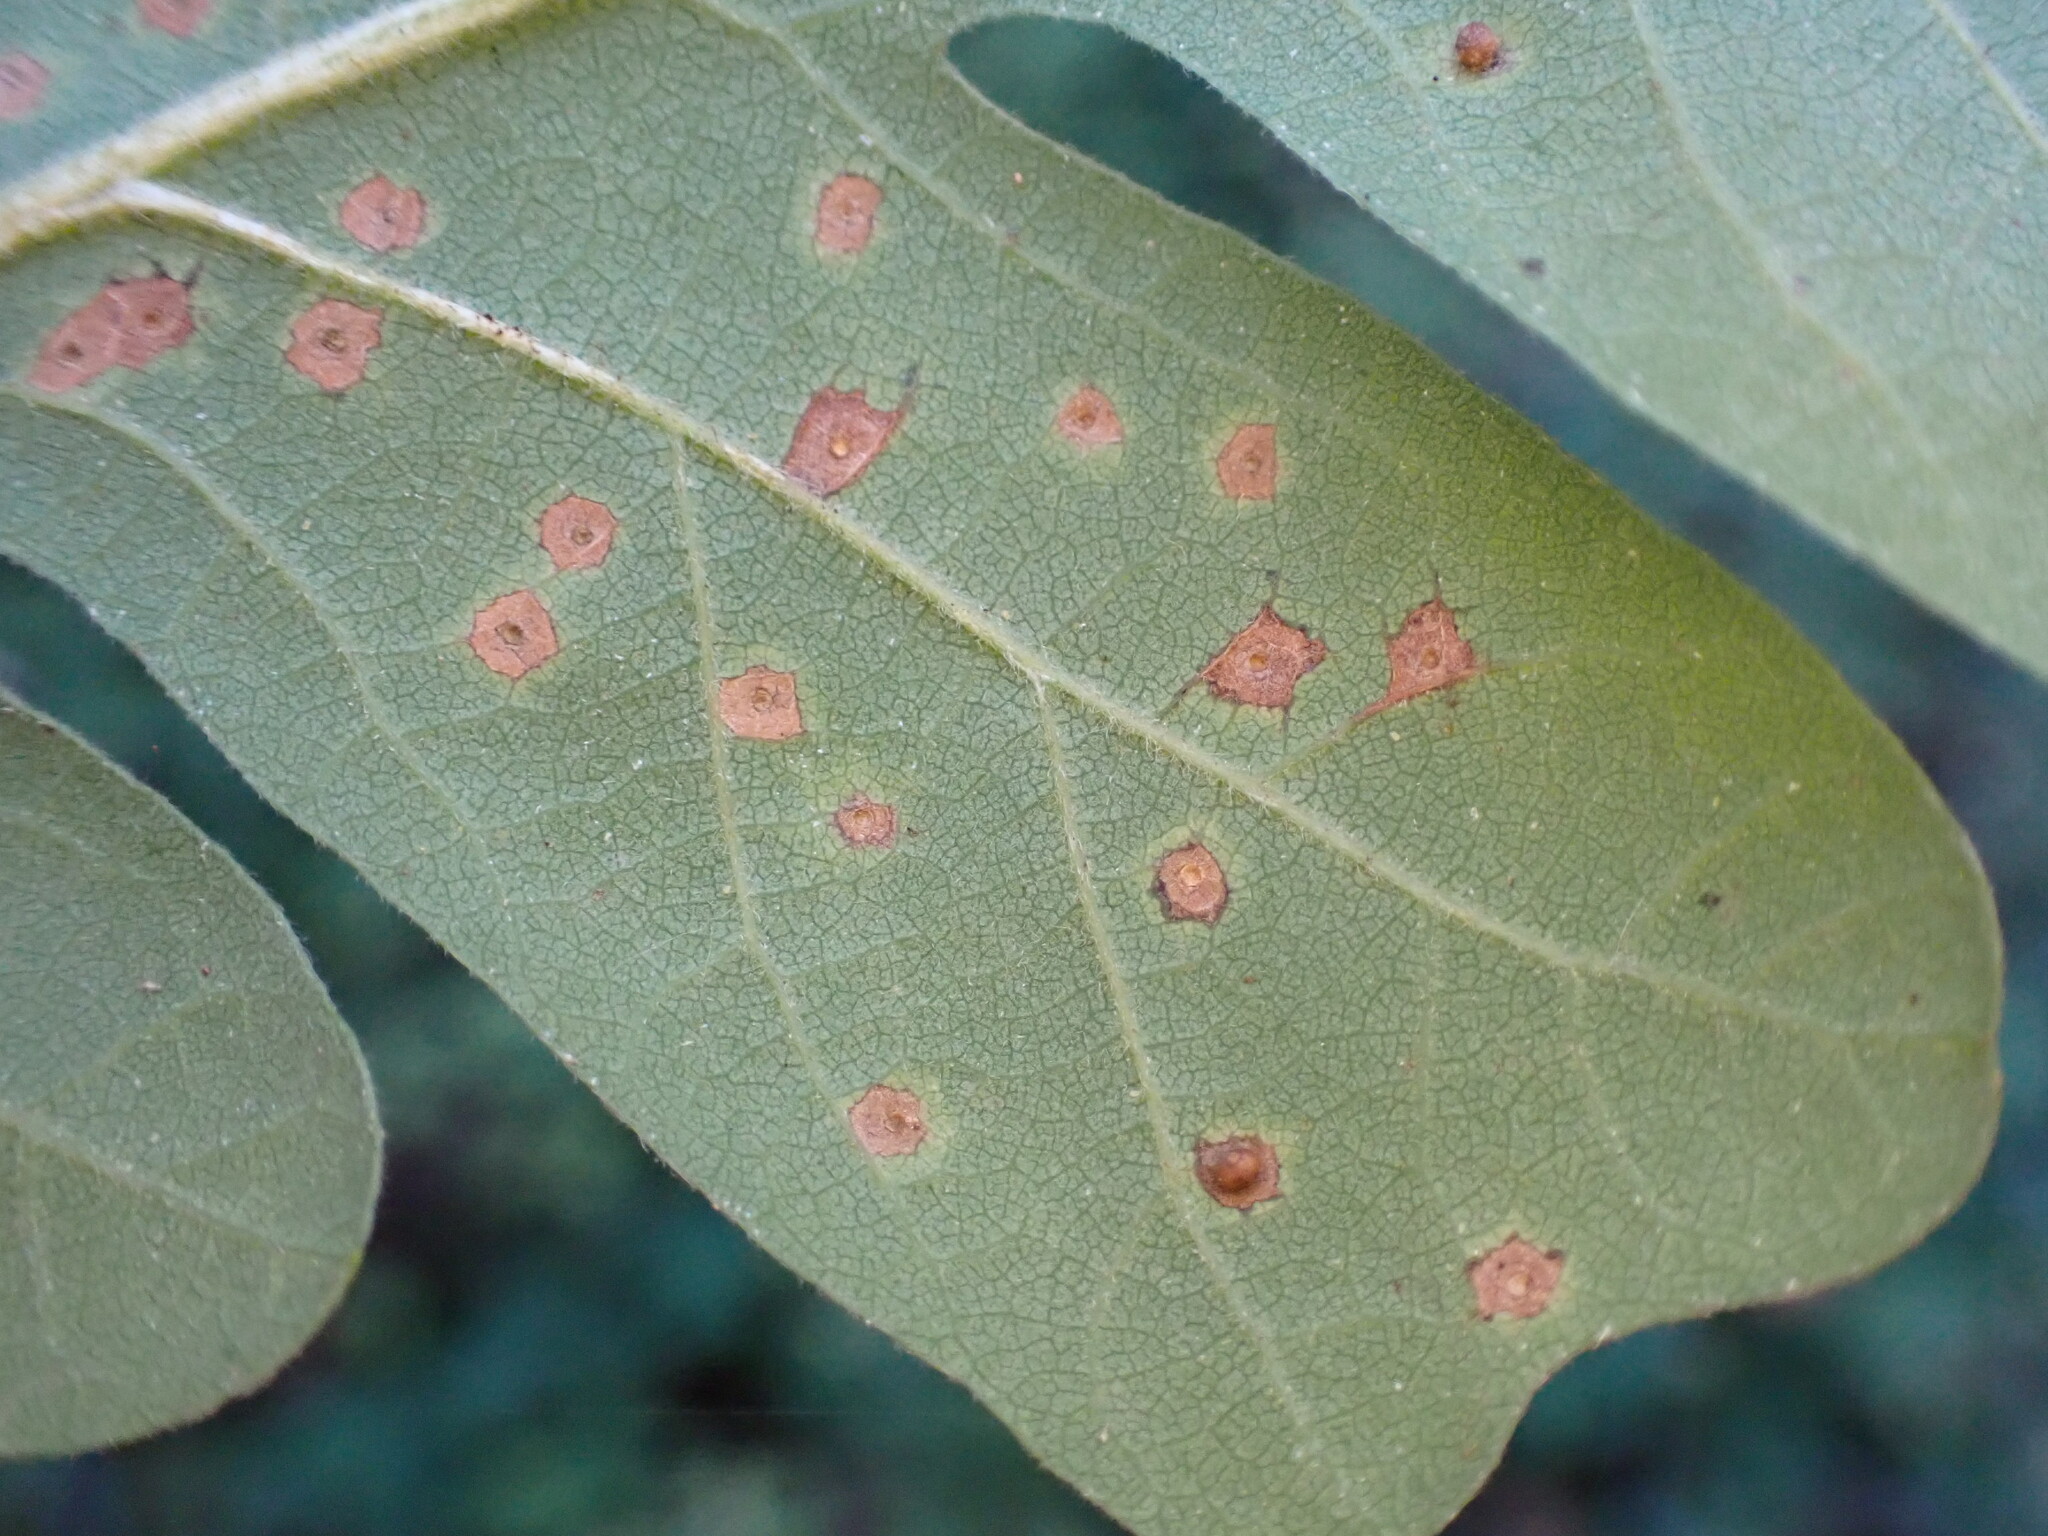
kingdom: Animalia
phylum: Arthropoda
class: Insecta
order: Hymenoptera
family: Cynipidae
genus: Neuroterus
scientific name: Neuroterus saltarius
